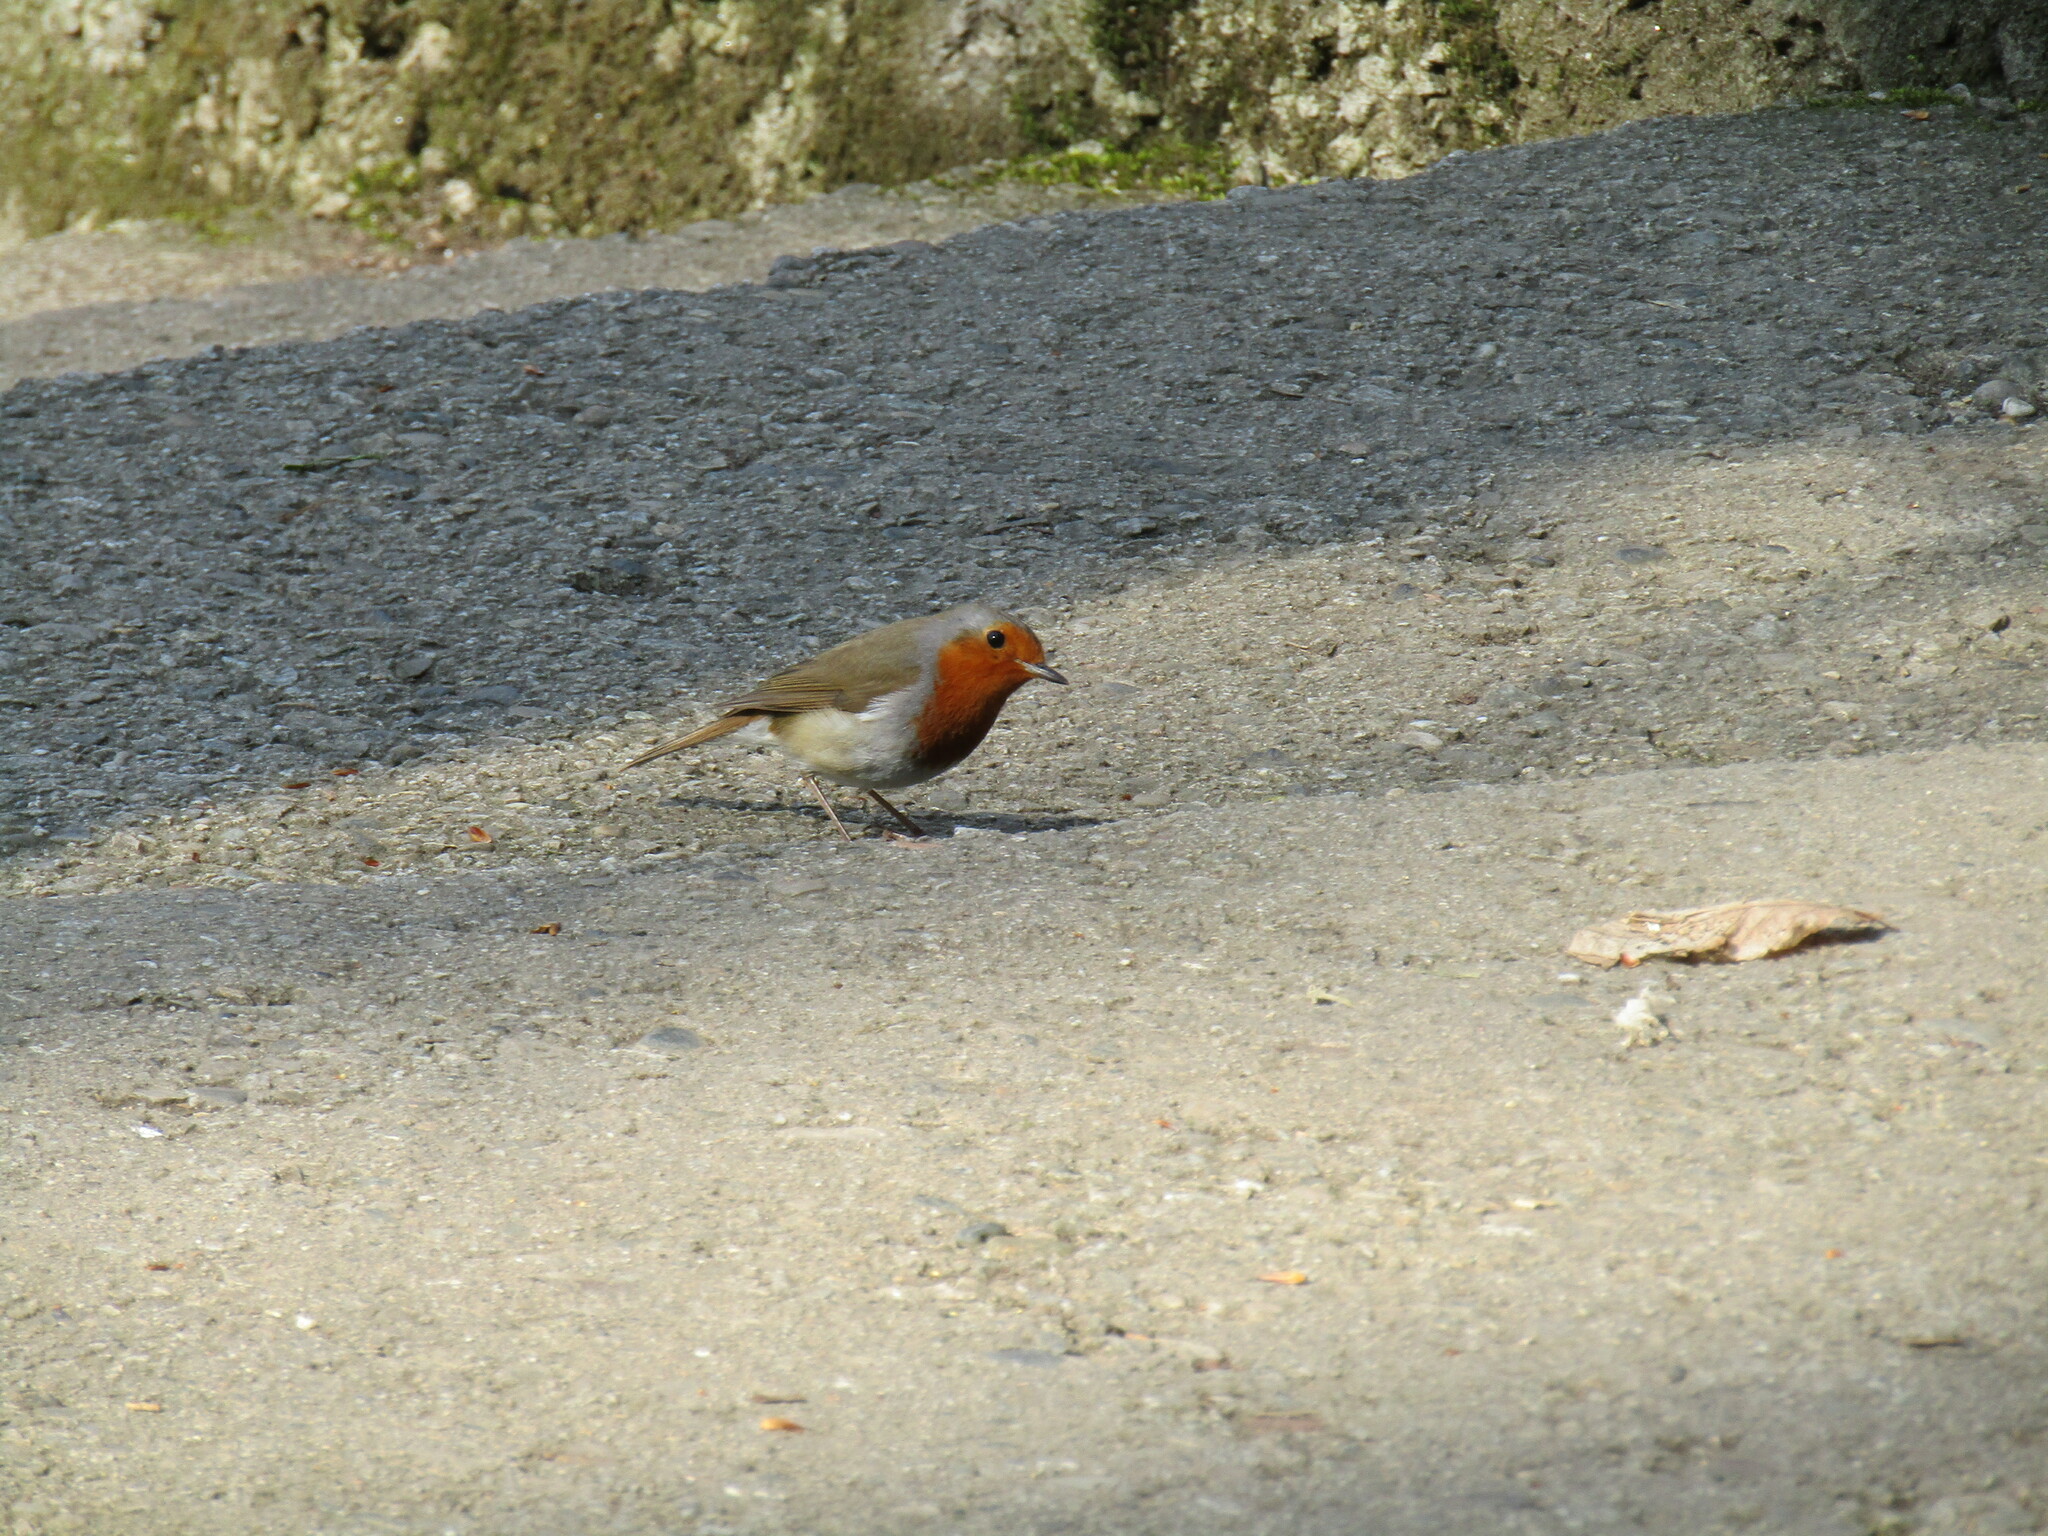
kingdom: Animalia
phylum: Chordata
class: Aves
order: Passeriformes
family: Muscicapidae
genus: Erithacus
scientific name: Erithacus rubecula
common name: European robin
